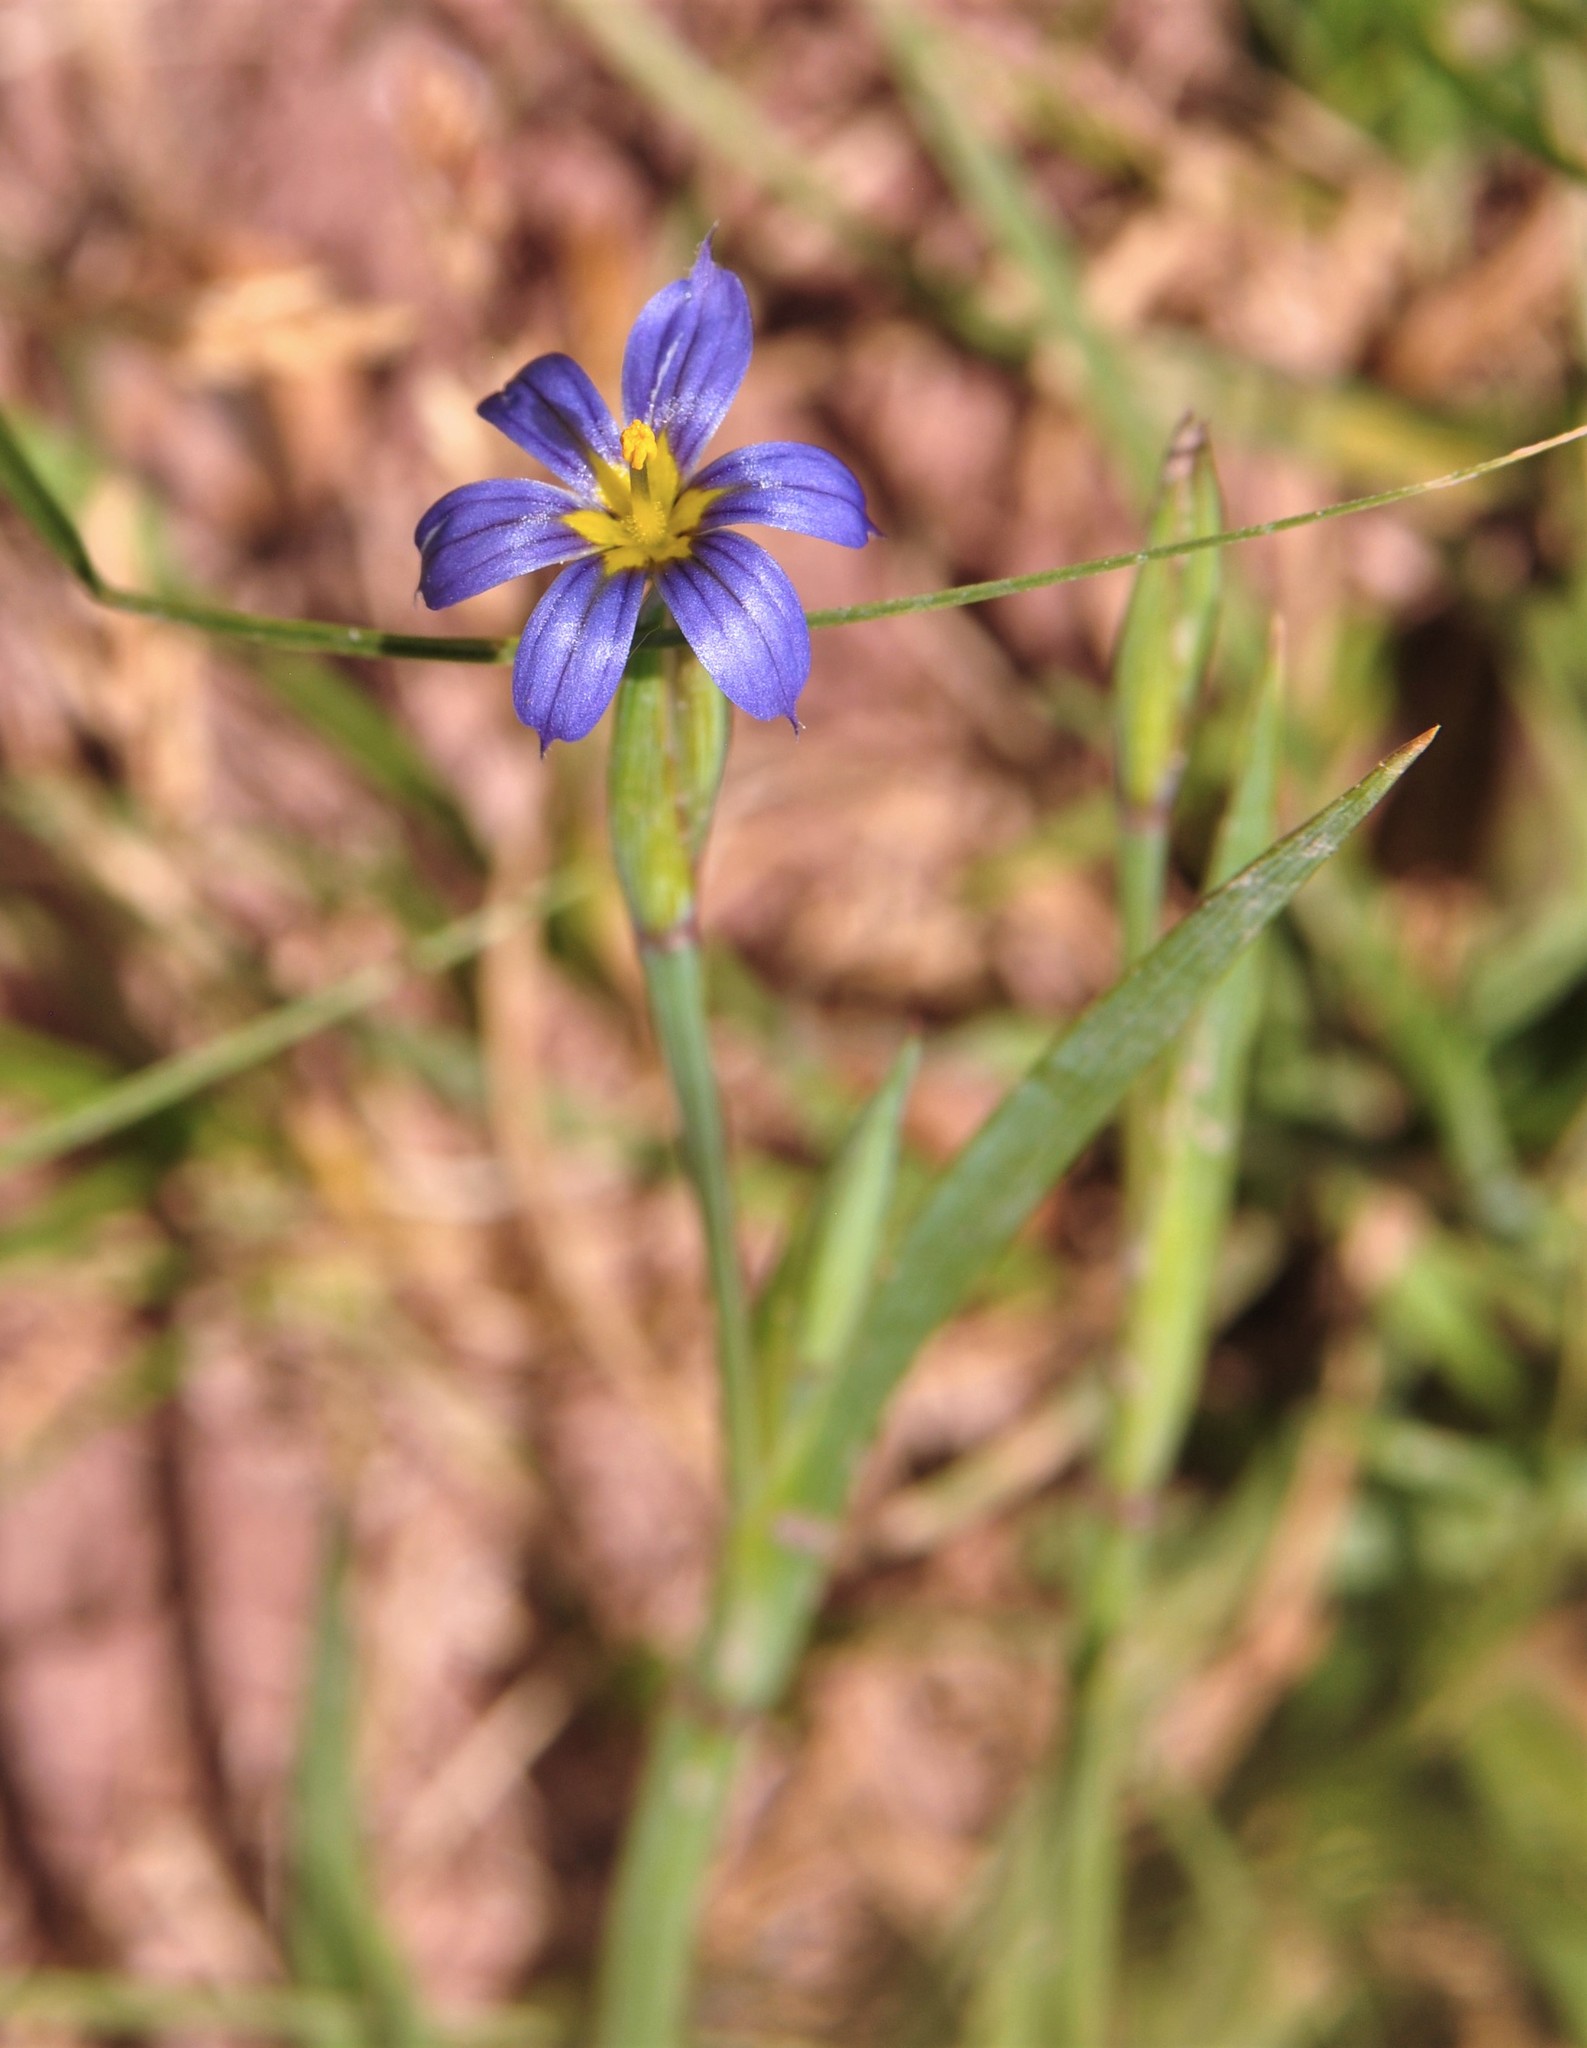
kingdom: Plantae
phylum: Tracheophyta
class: Liliopsida
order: Asparagales
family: Iridaceae
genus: Sisyrinchium
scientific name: Sisyrinchium demissum
